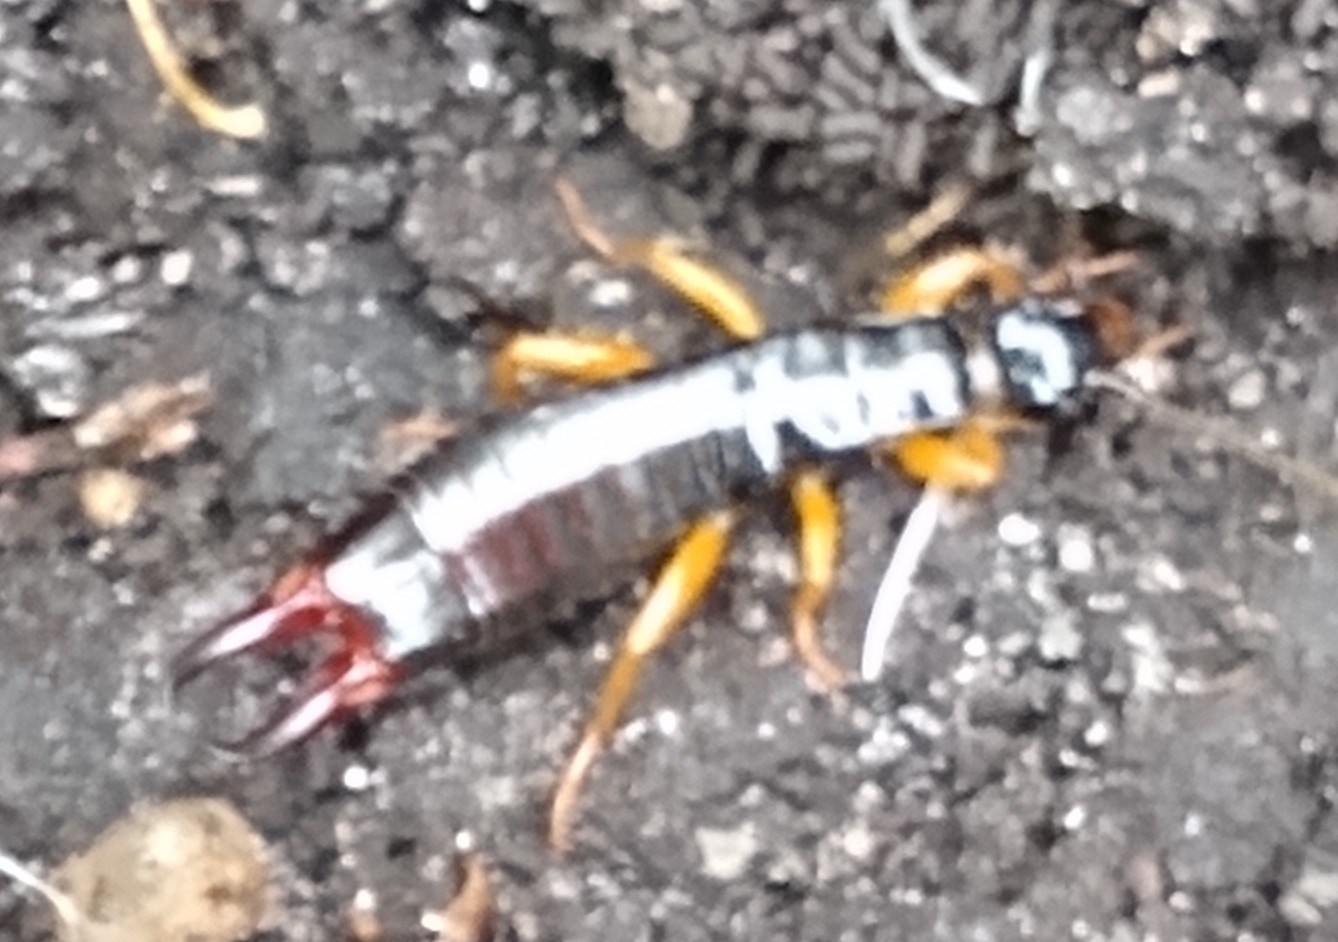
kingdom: Animalia
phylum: Arthropoda
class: Insecta
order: Dermaptera
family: Anisolabididae
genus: Euborellia
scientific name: Euborellia arcanum
